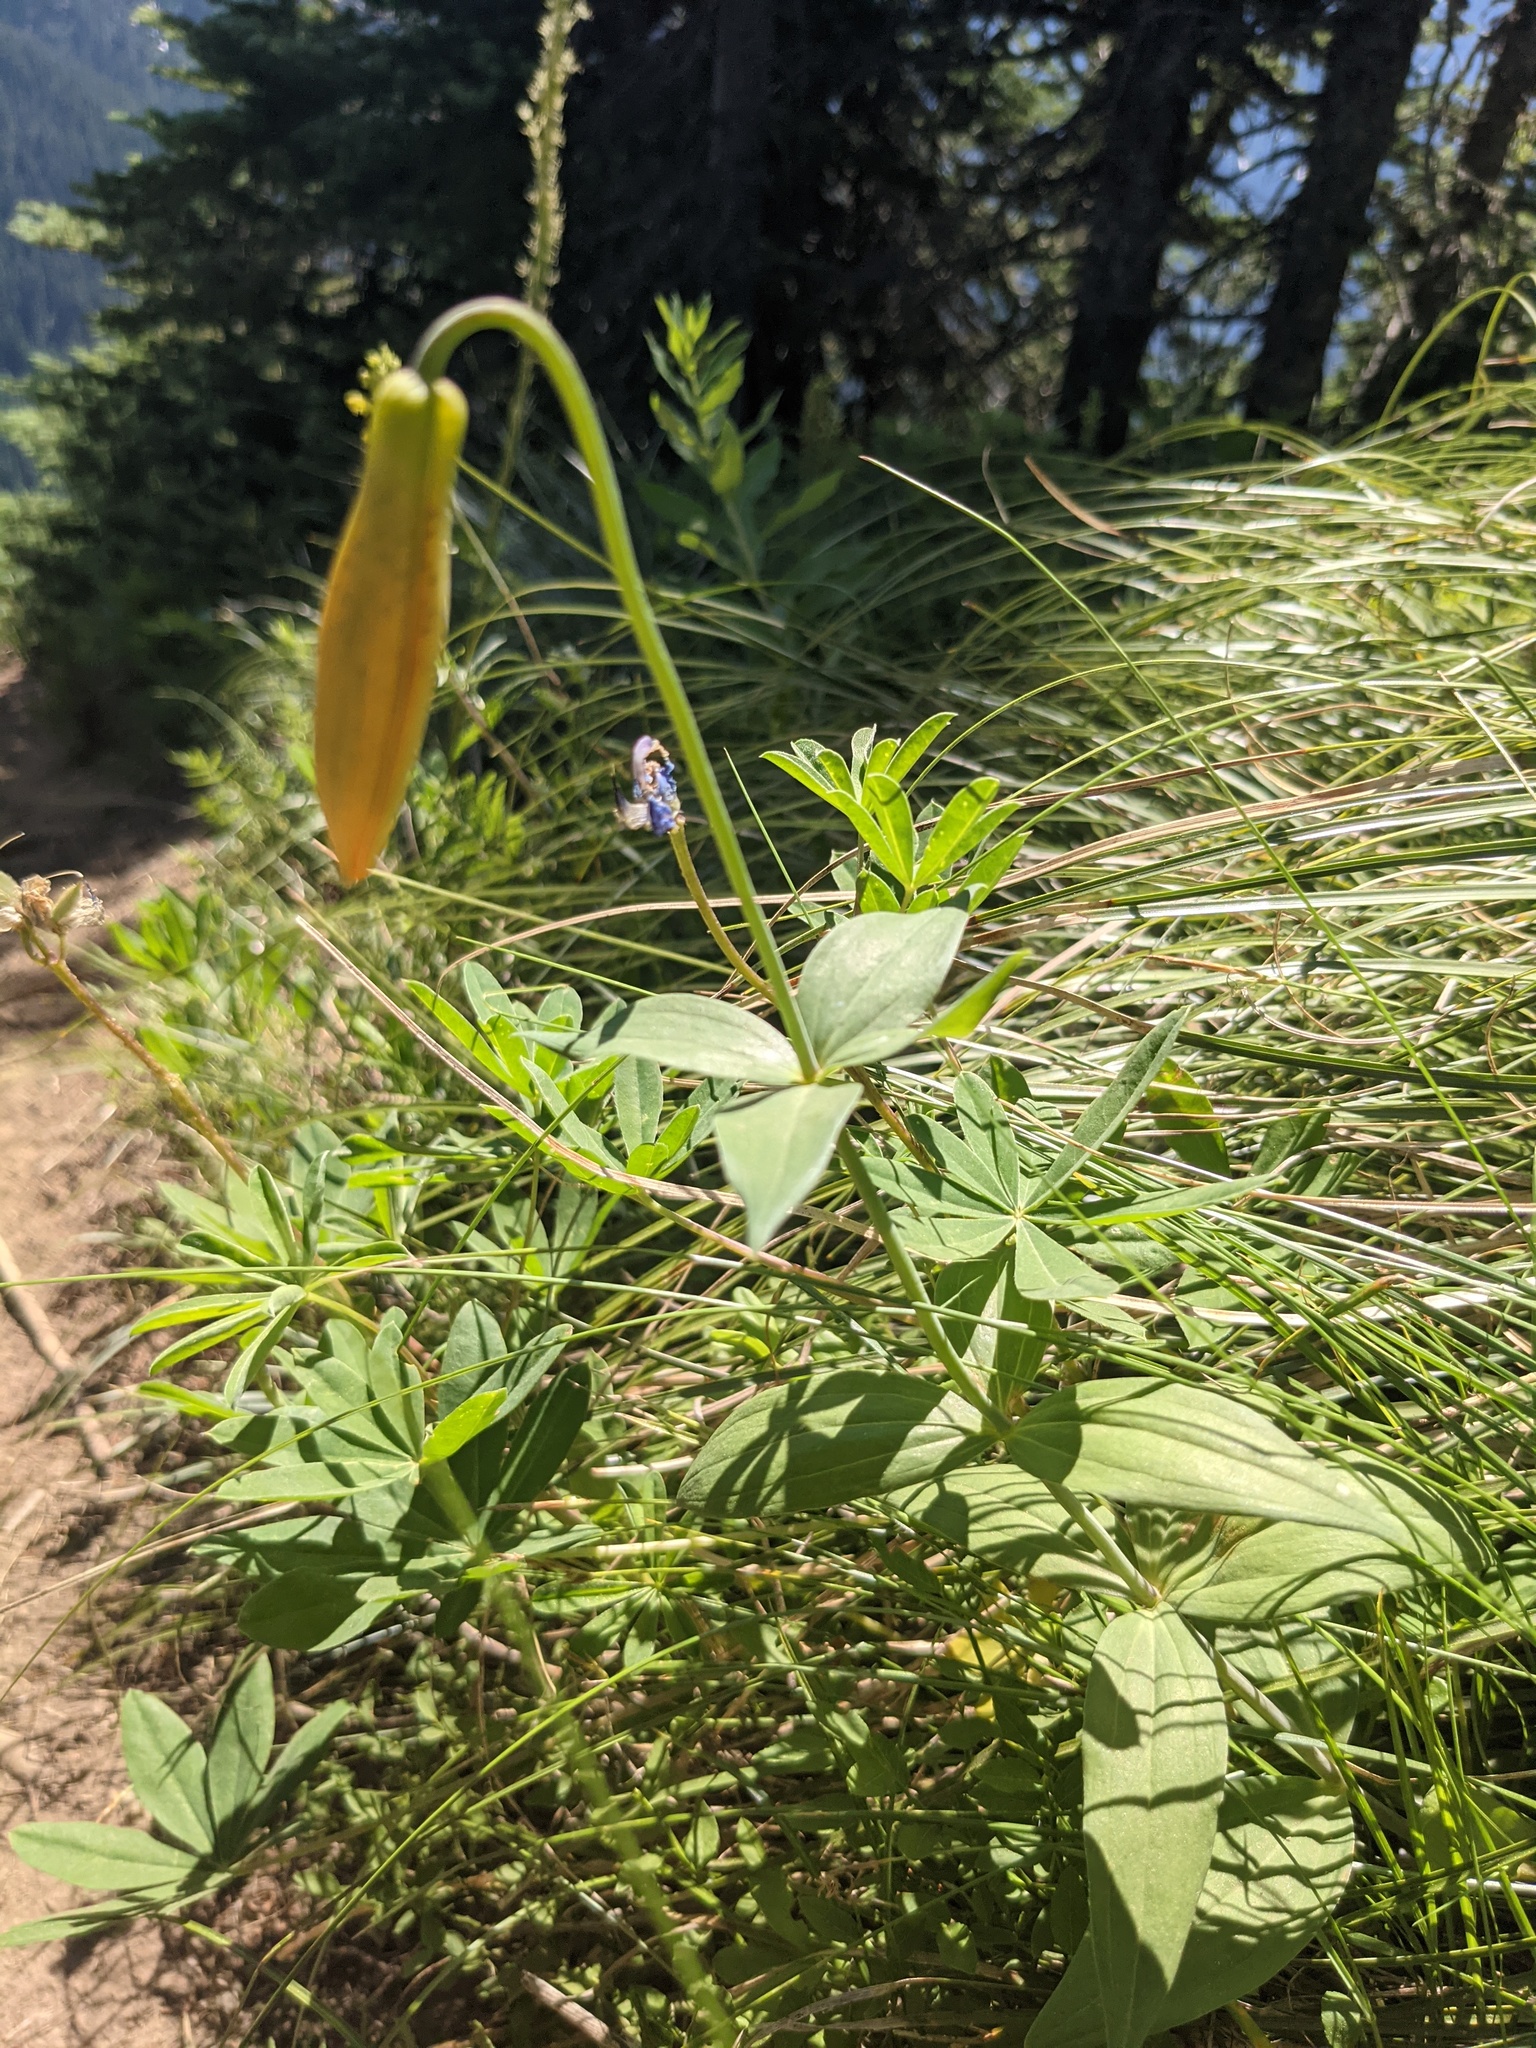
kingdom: Plantae
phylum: Tracheophyta
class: Liliopsida
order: Liliales
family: Liliaceae
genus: Lilium
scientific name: Lilium columbianum
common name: Columbia lily
